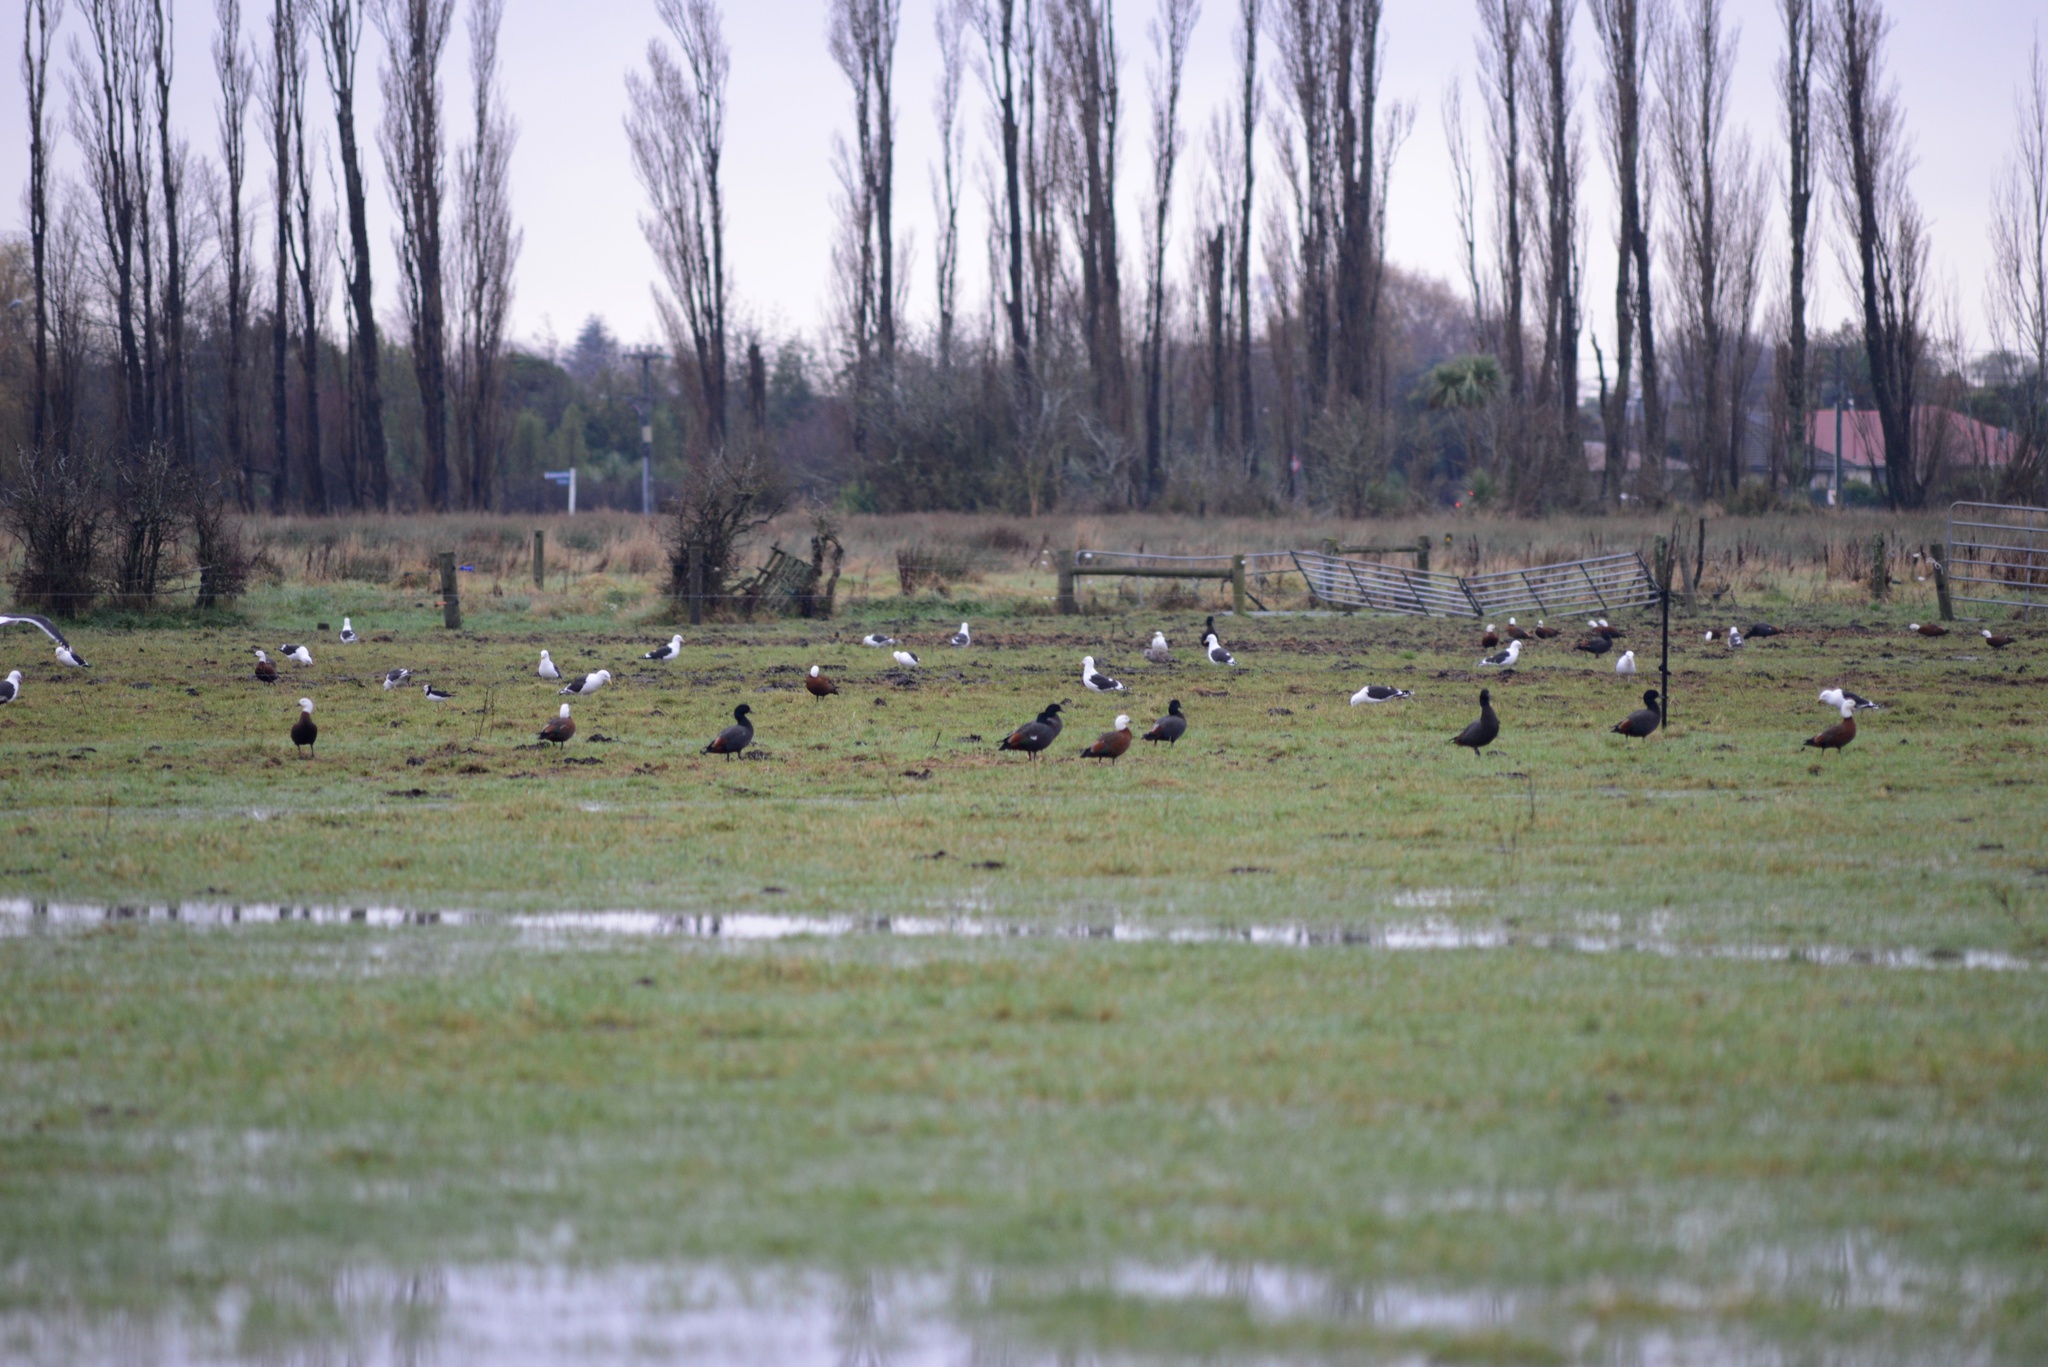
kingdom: Animalia
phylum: Chordata
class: Aves
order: Charadriiformes
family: Laridae
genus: Larus
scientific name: Larus dominicanus
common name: Kelp gull
